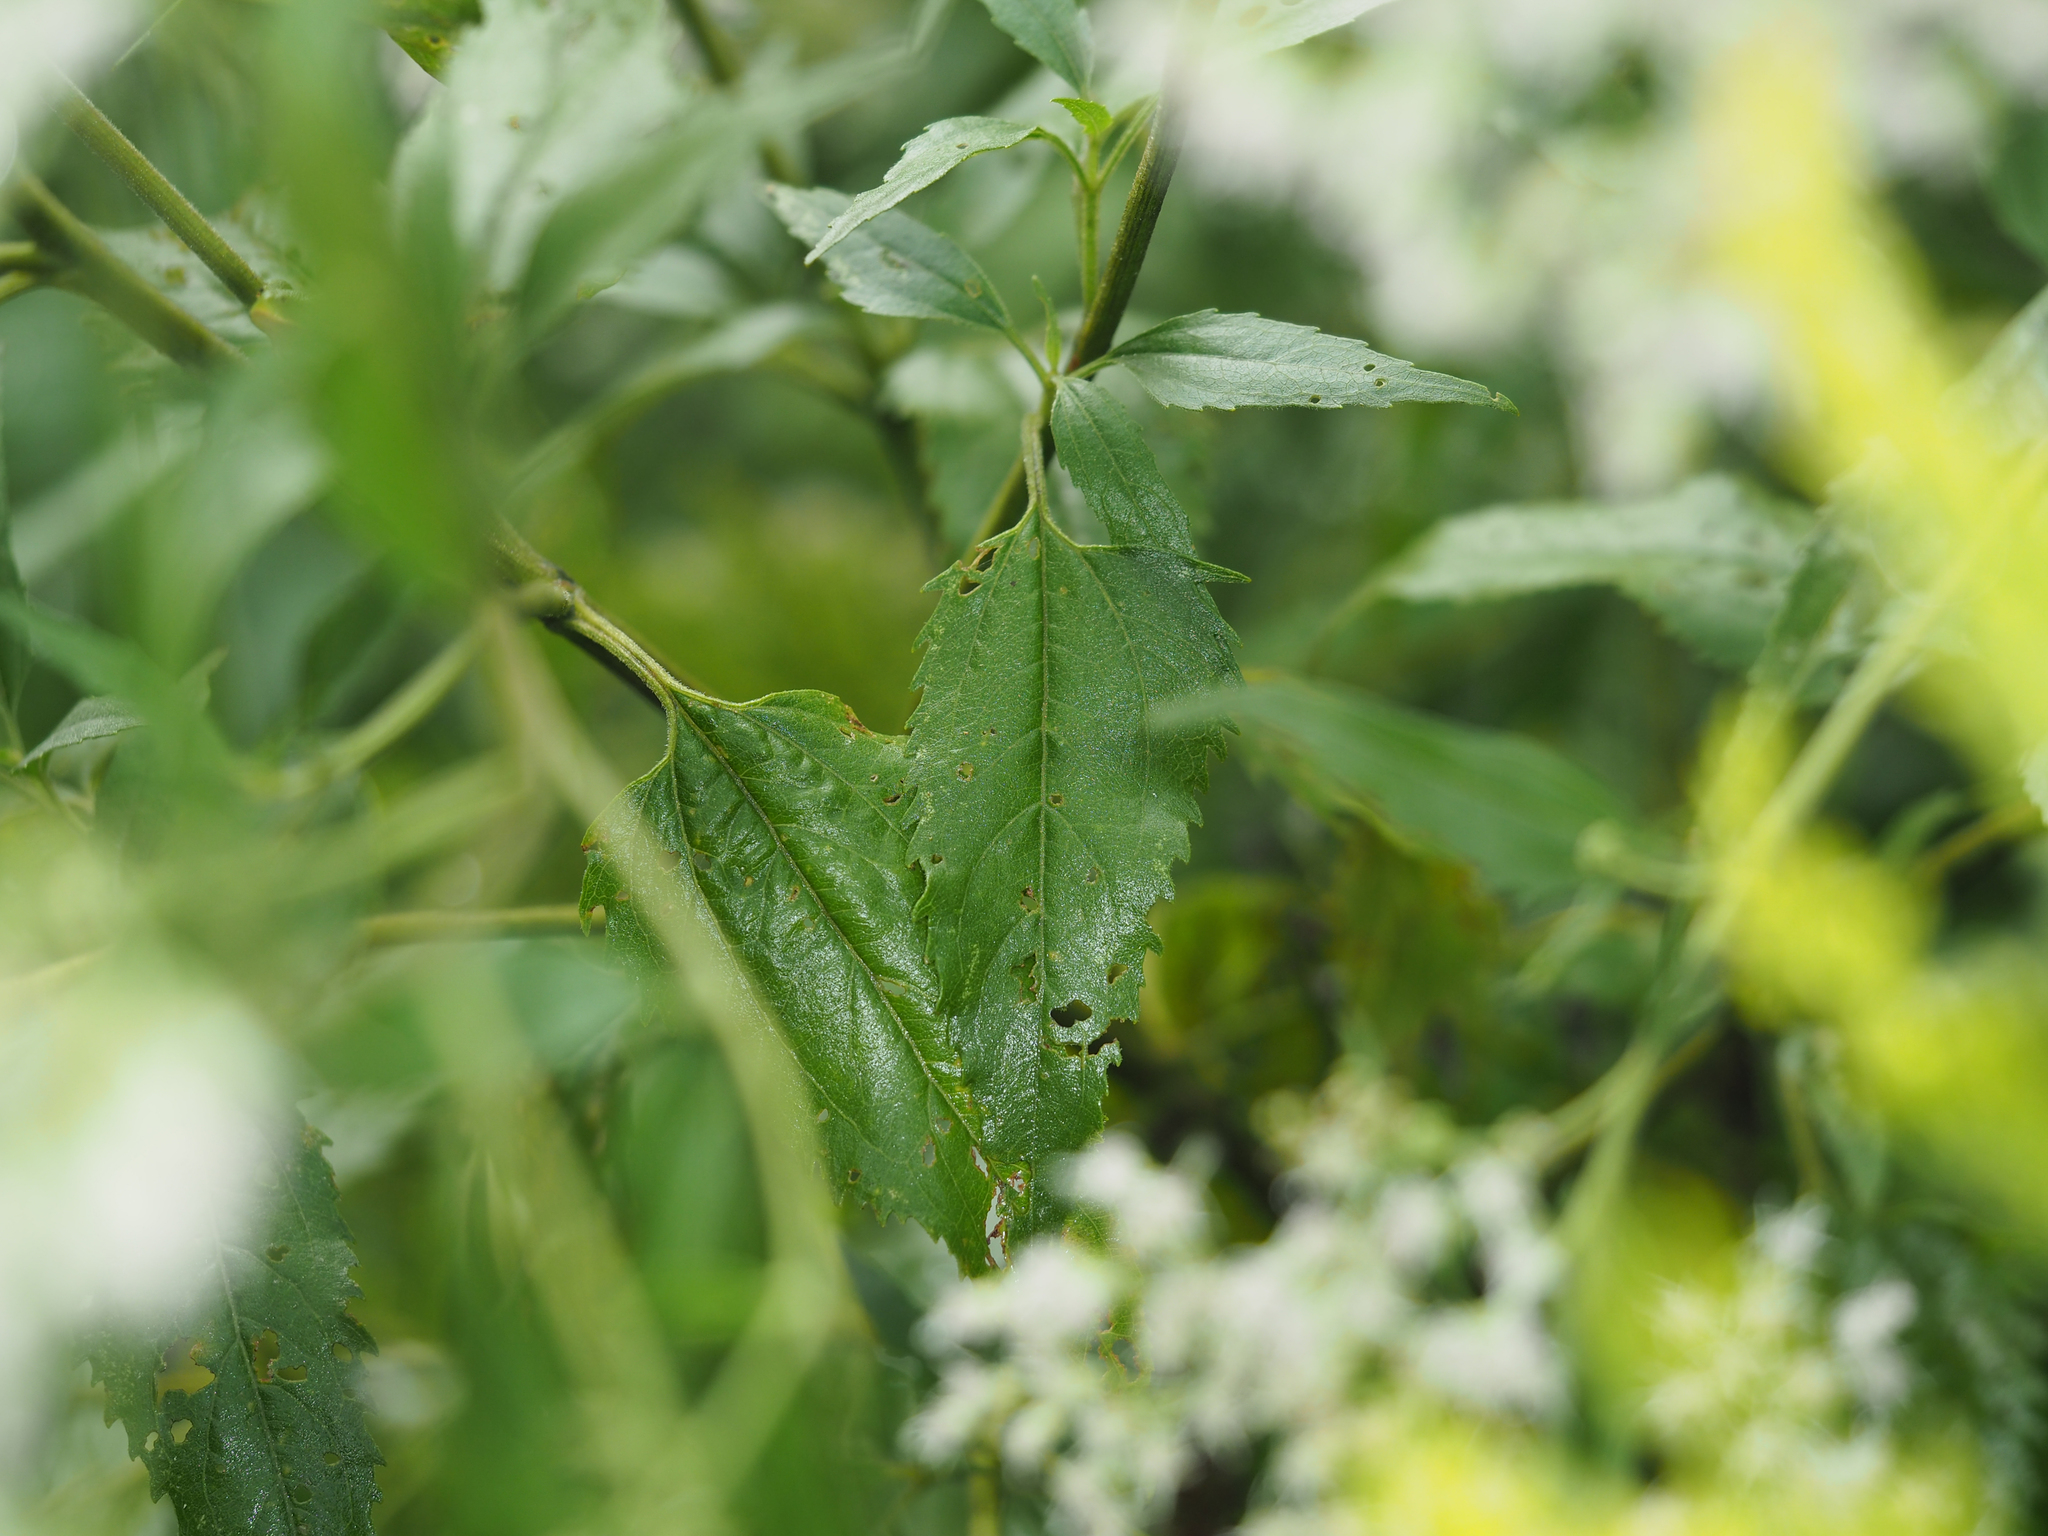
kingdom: Plantae
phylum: Tracheophyta
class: Magnoliopsida
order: Asterales
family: Asteraceae
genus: Eupatorium
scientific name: Eupatorium serotinum
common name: Late boneset
